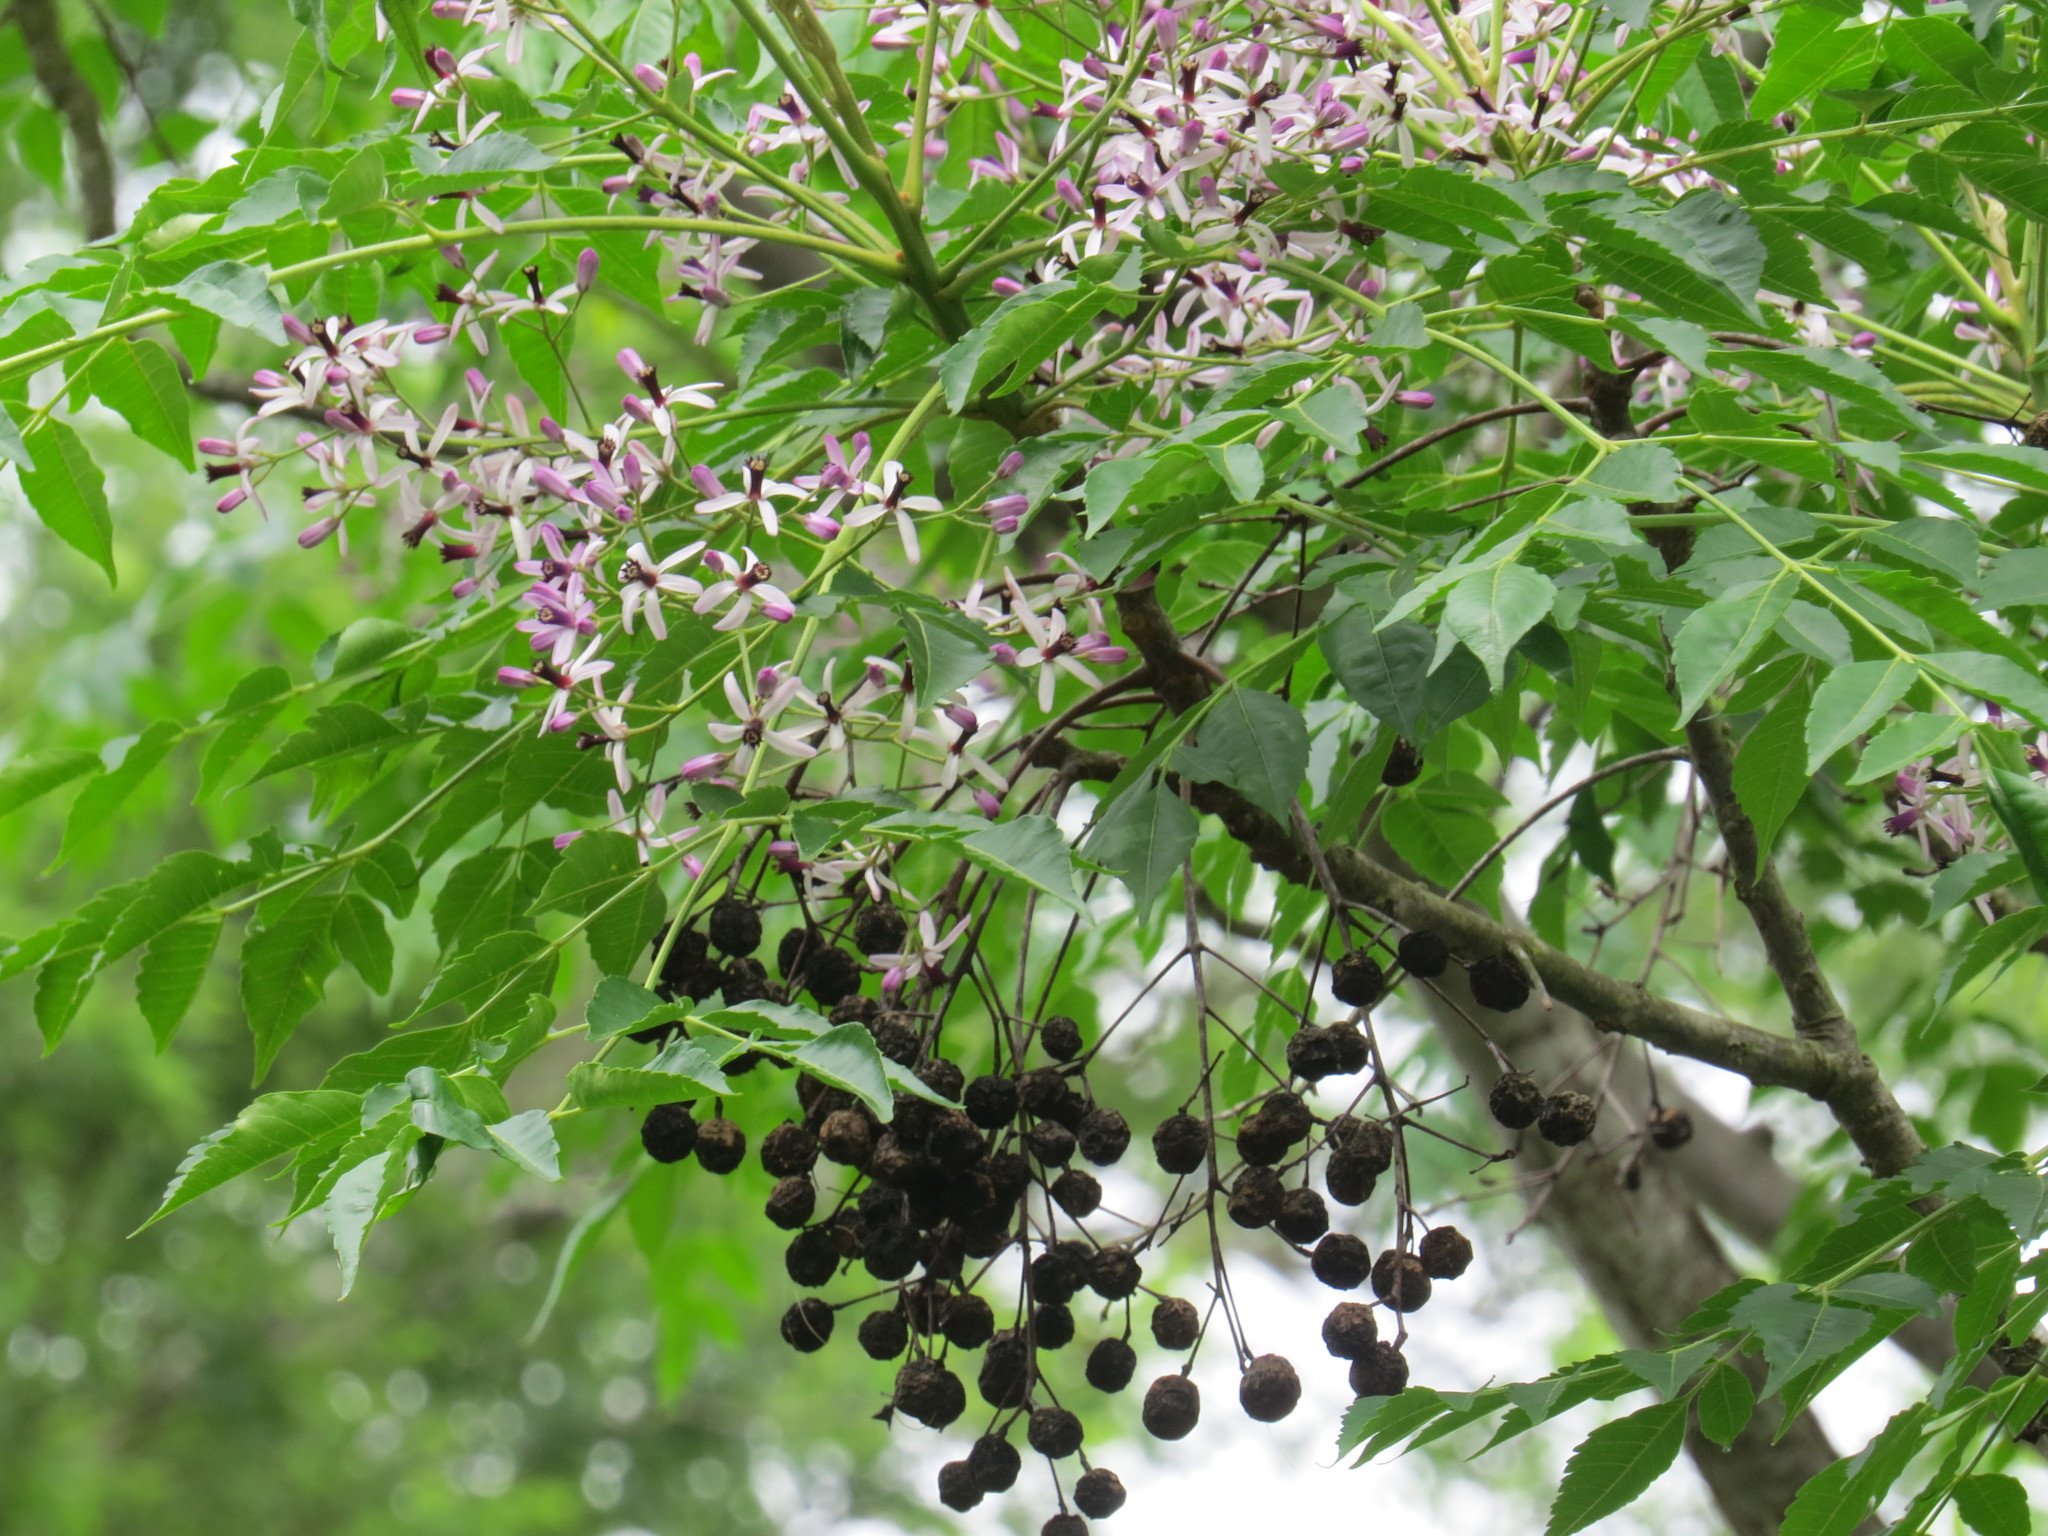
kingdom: Plantae
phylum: Tracheophyta
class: Magnoliopsida
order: Sapindales
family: Meliaceae
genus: Melia
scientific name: Melia azedarach
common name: Chinaberrytree
